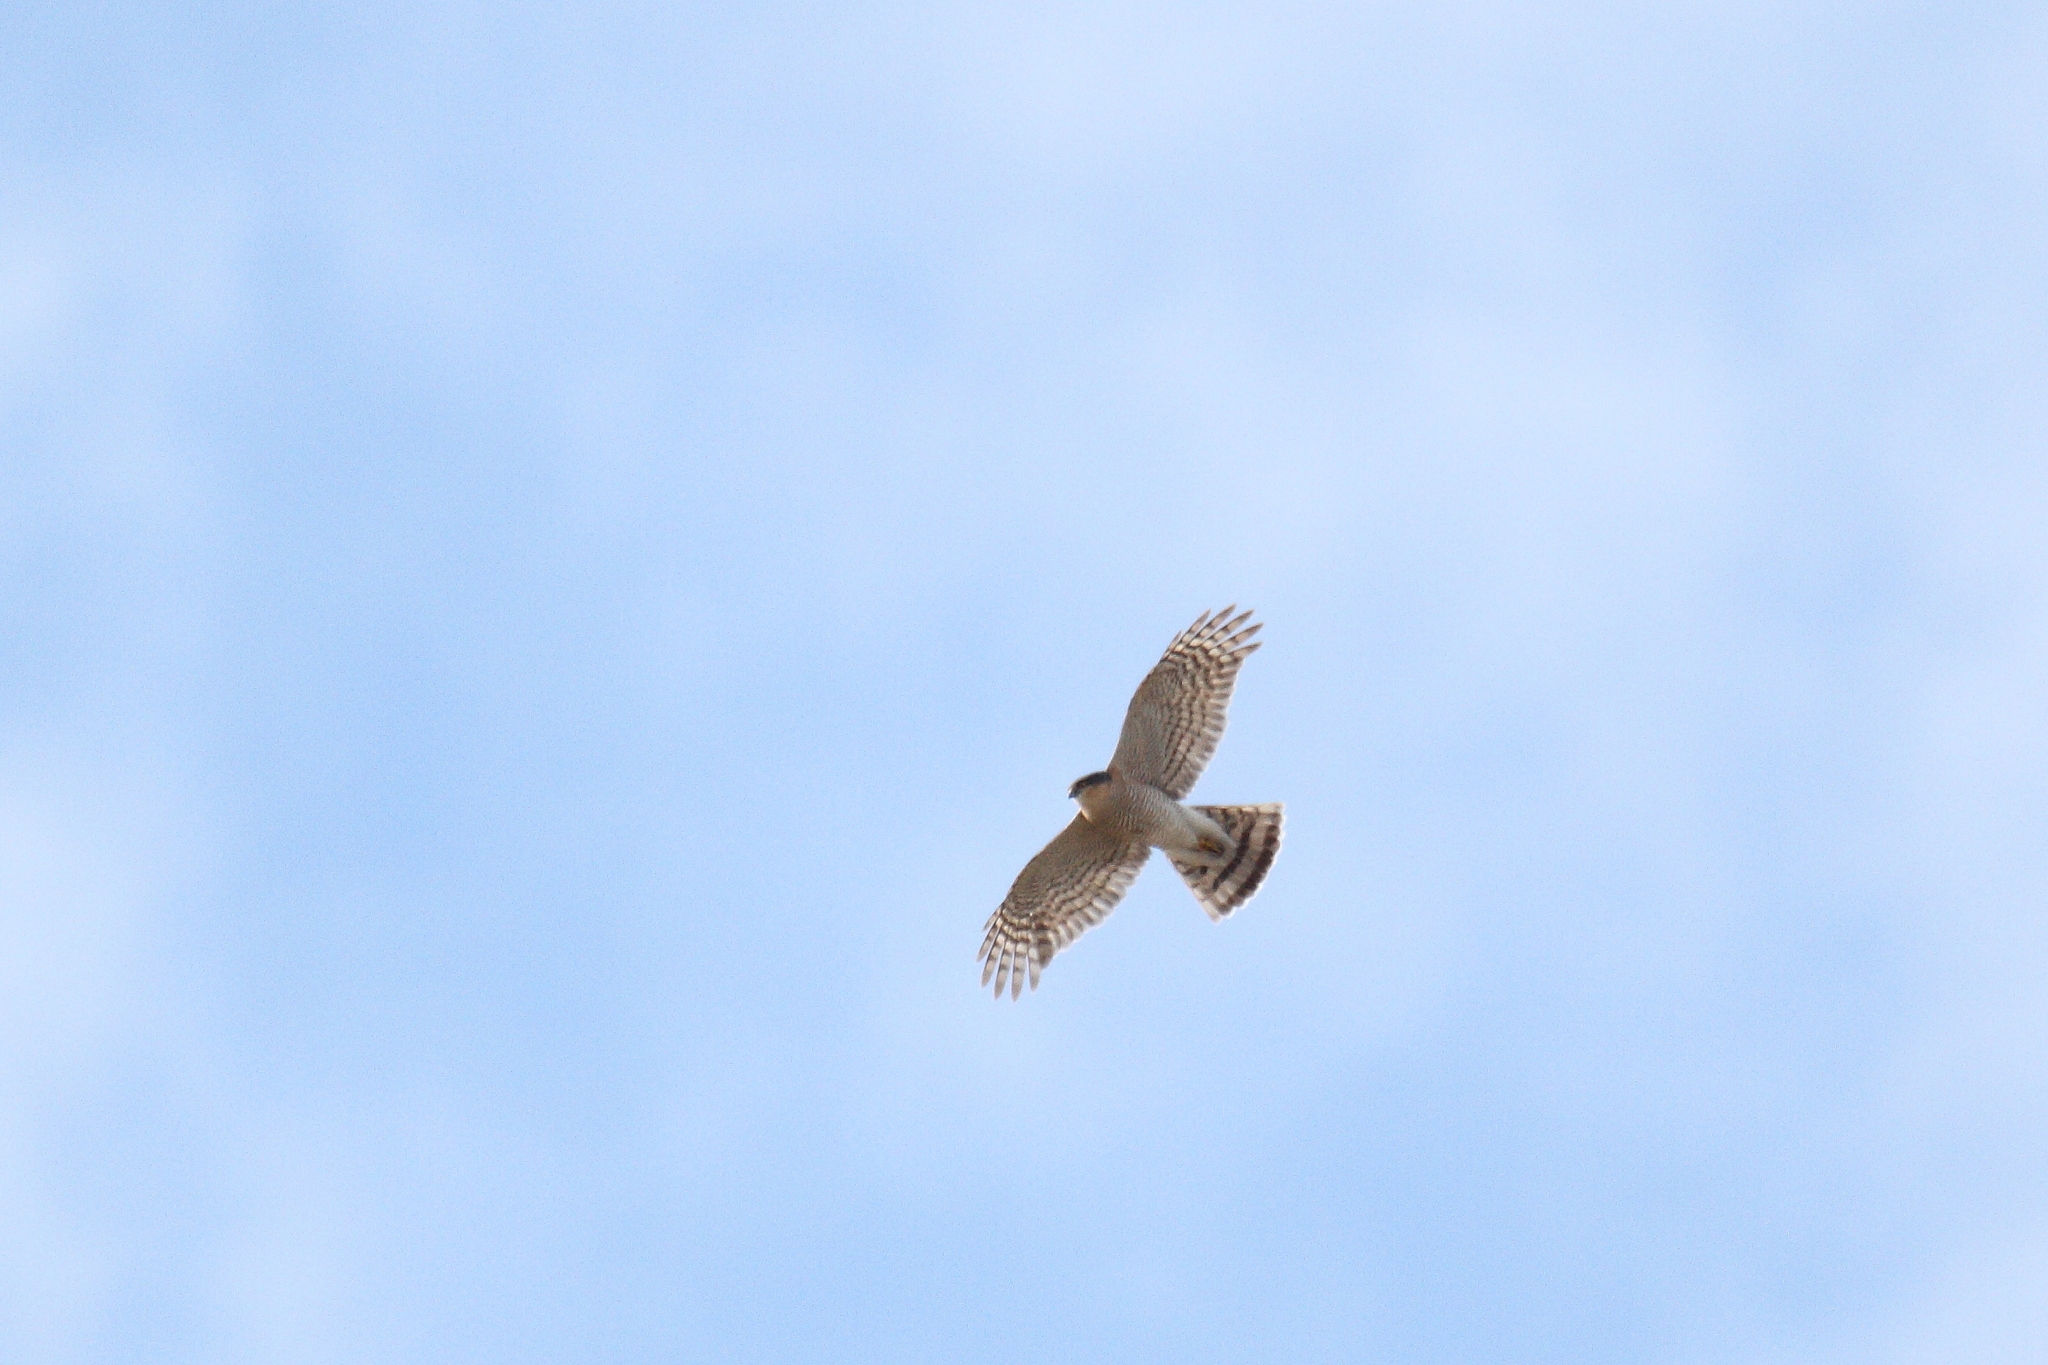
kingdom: Animalia
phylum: Chordata
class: Aves
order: Accipitriformes
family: Accipitridae
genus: Accipiter
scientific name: Accipiter nisus
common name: Eurasian sparrowhawk
